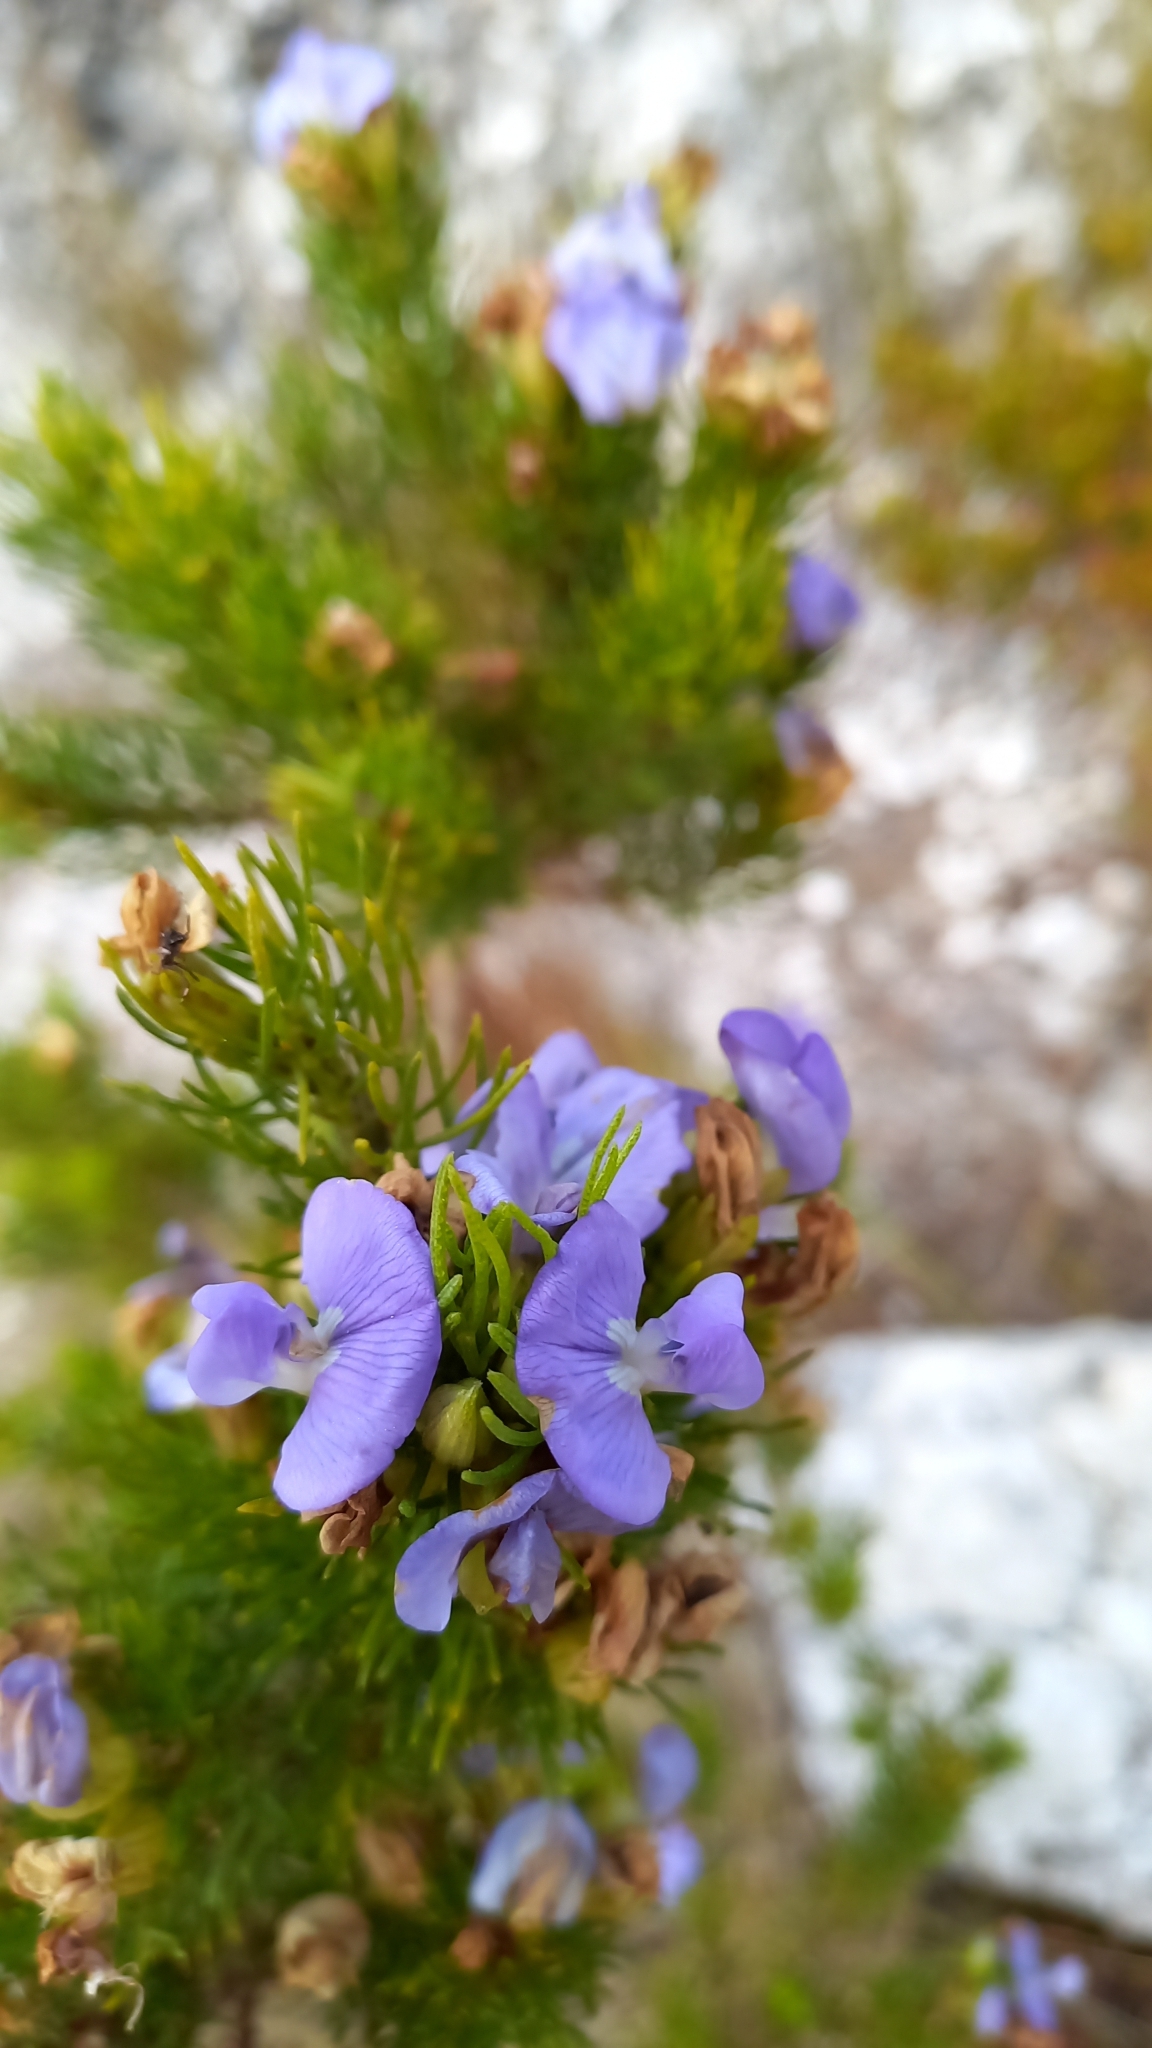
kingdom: Plantae
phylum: Tracheophyta
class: Magnoliopsida
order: Fabales
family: Fabaceae
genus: Psoralea
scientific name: Psoralea speciosa
